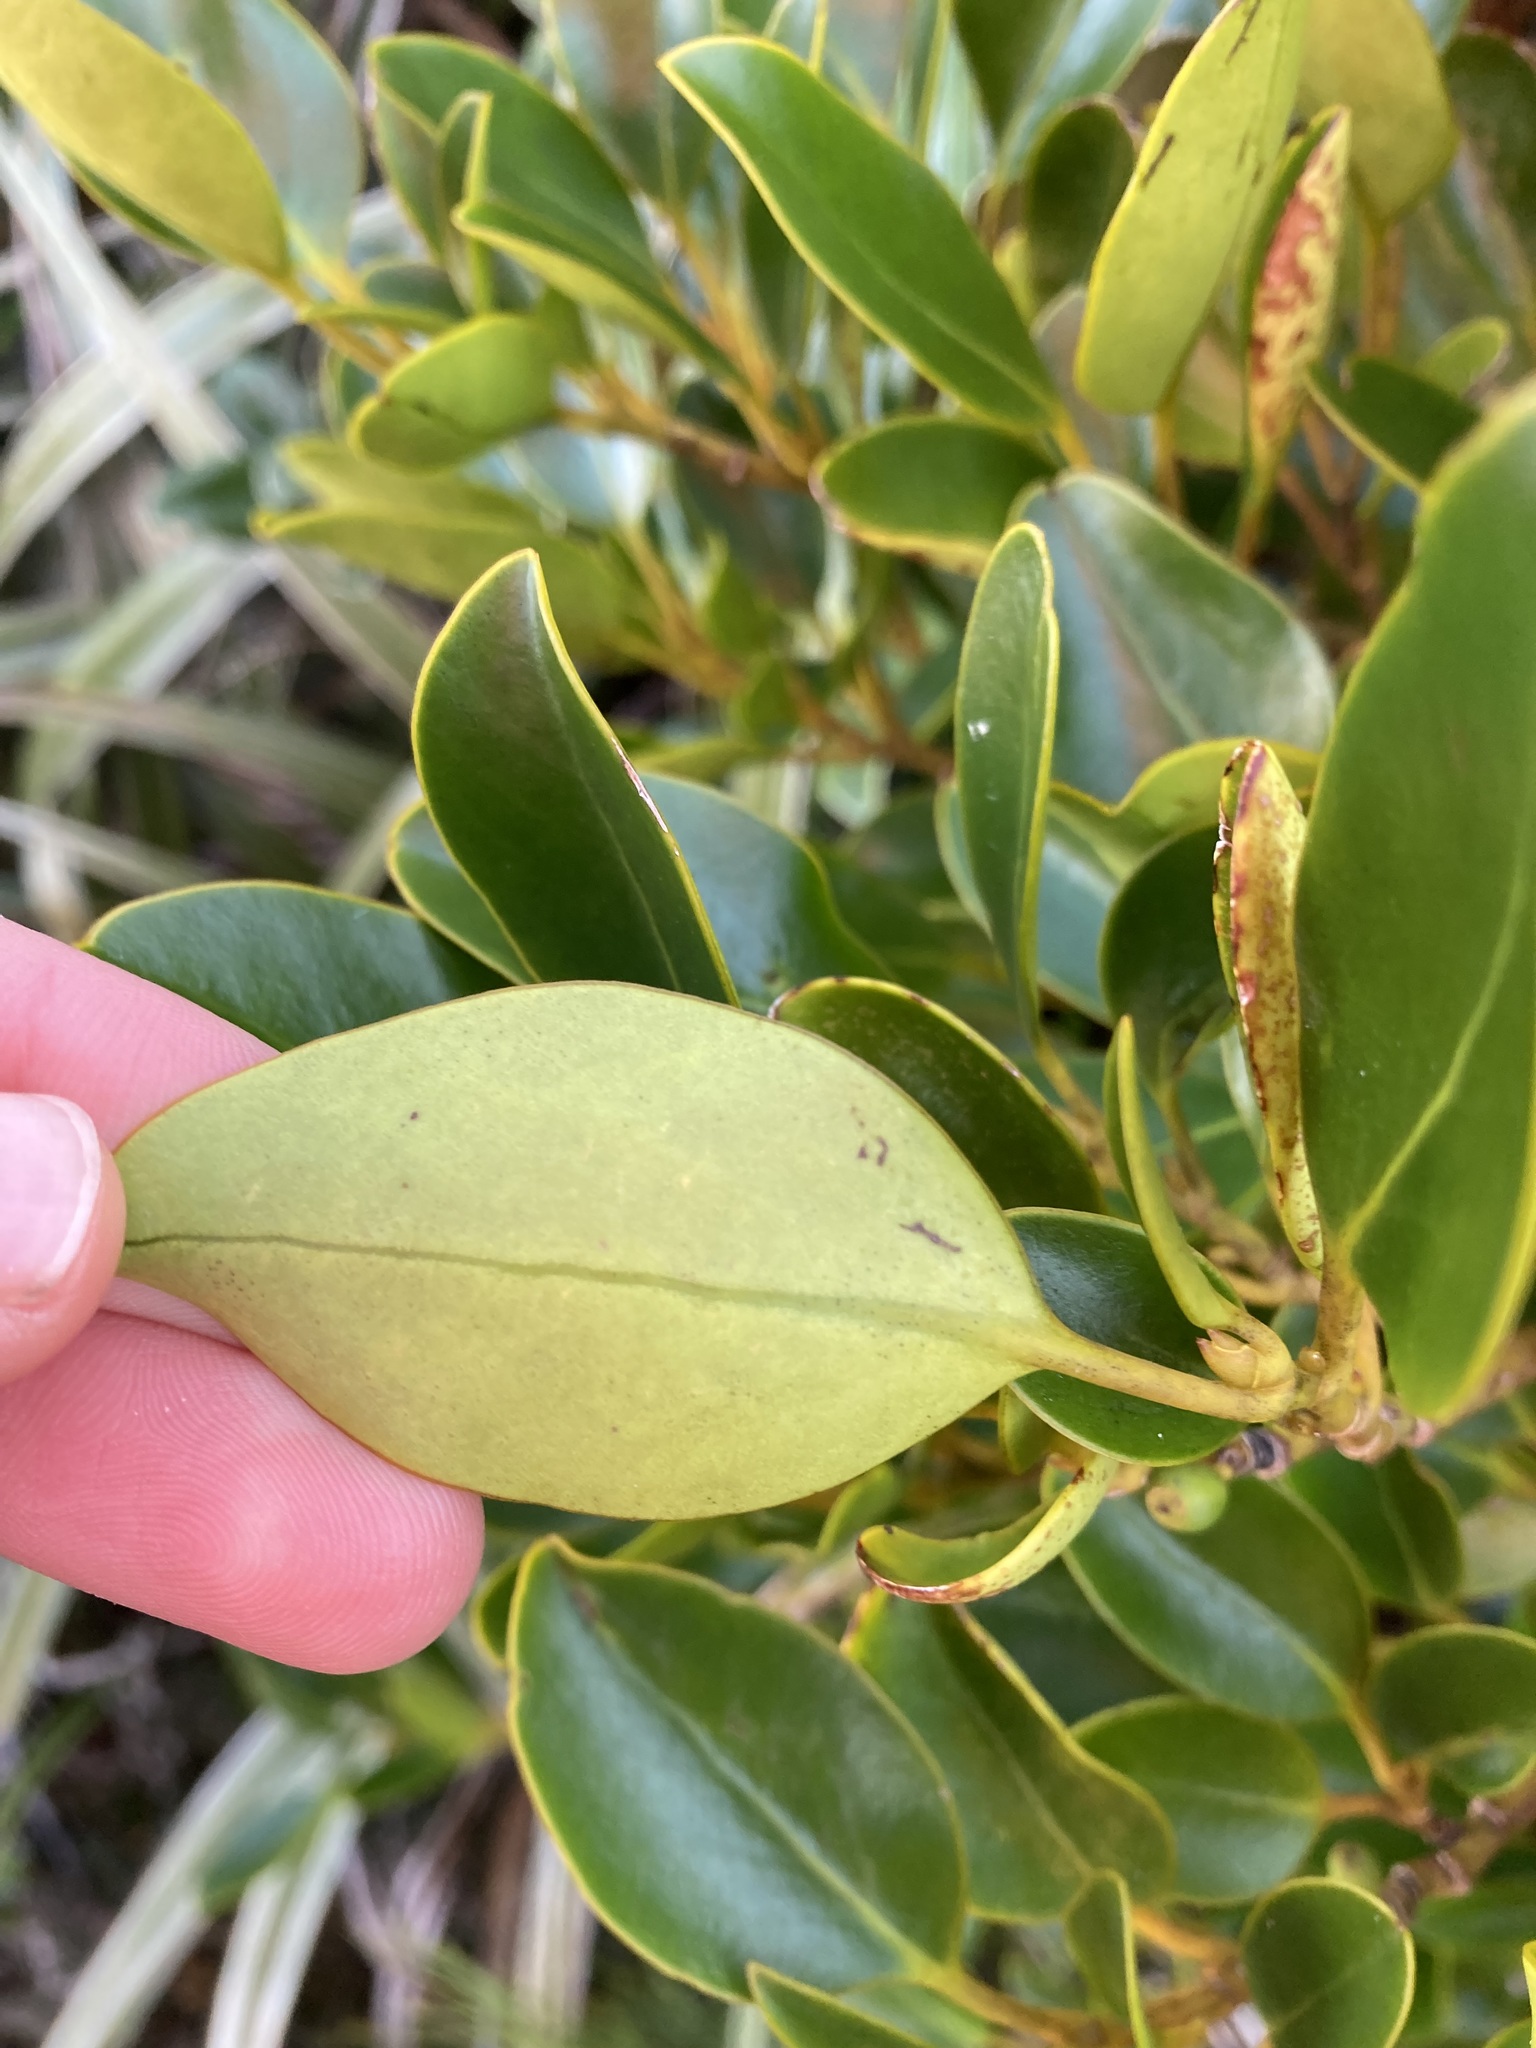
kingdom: Plantae
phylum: Tracheophyta
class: Magnoliopsida
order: Apiales
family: Griseliniaceae
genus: Griselinia
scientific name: Griselinia littoralis
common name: New zealand broadleaf
